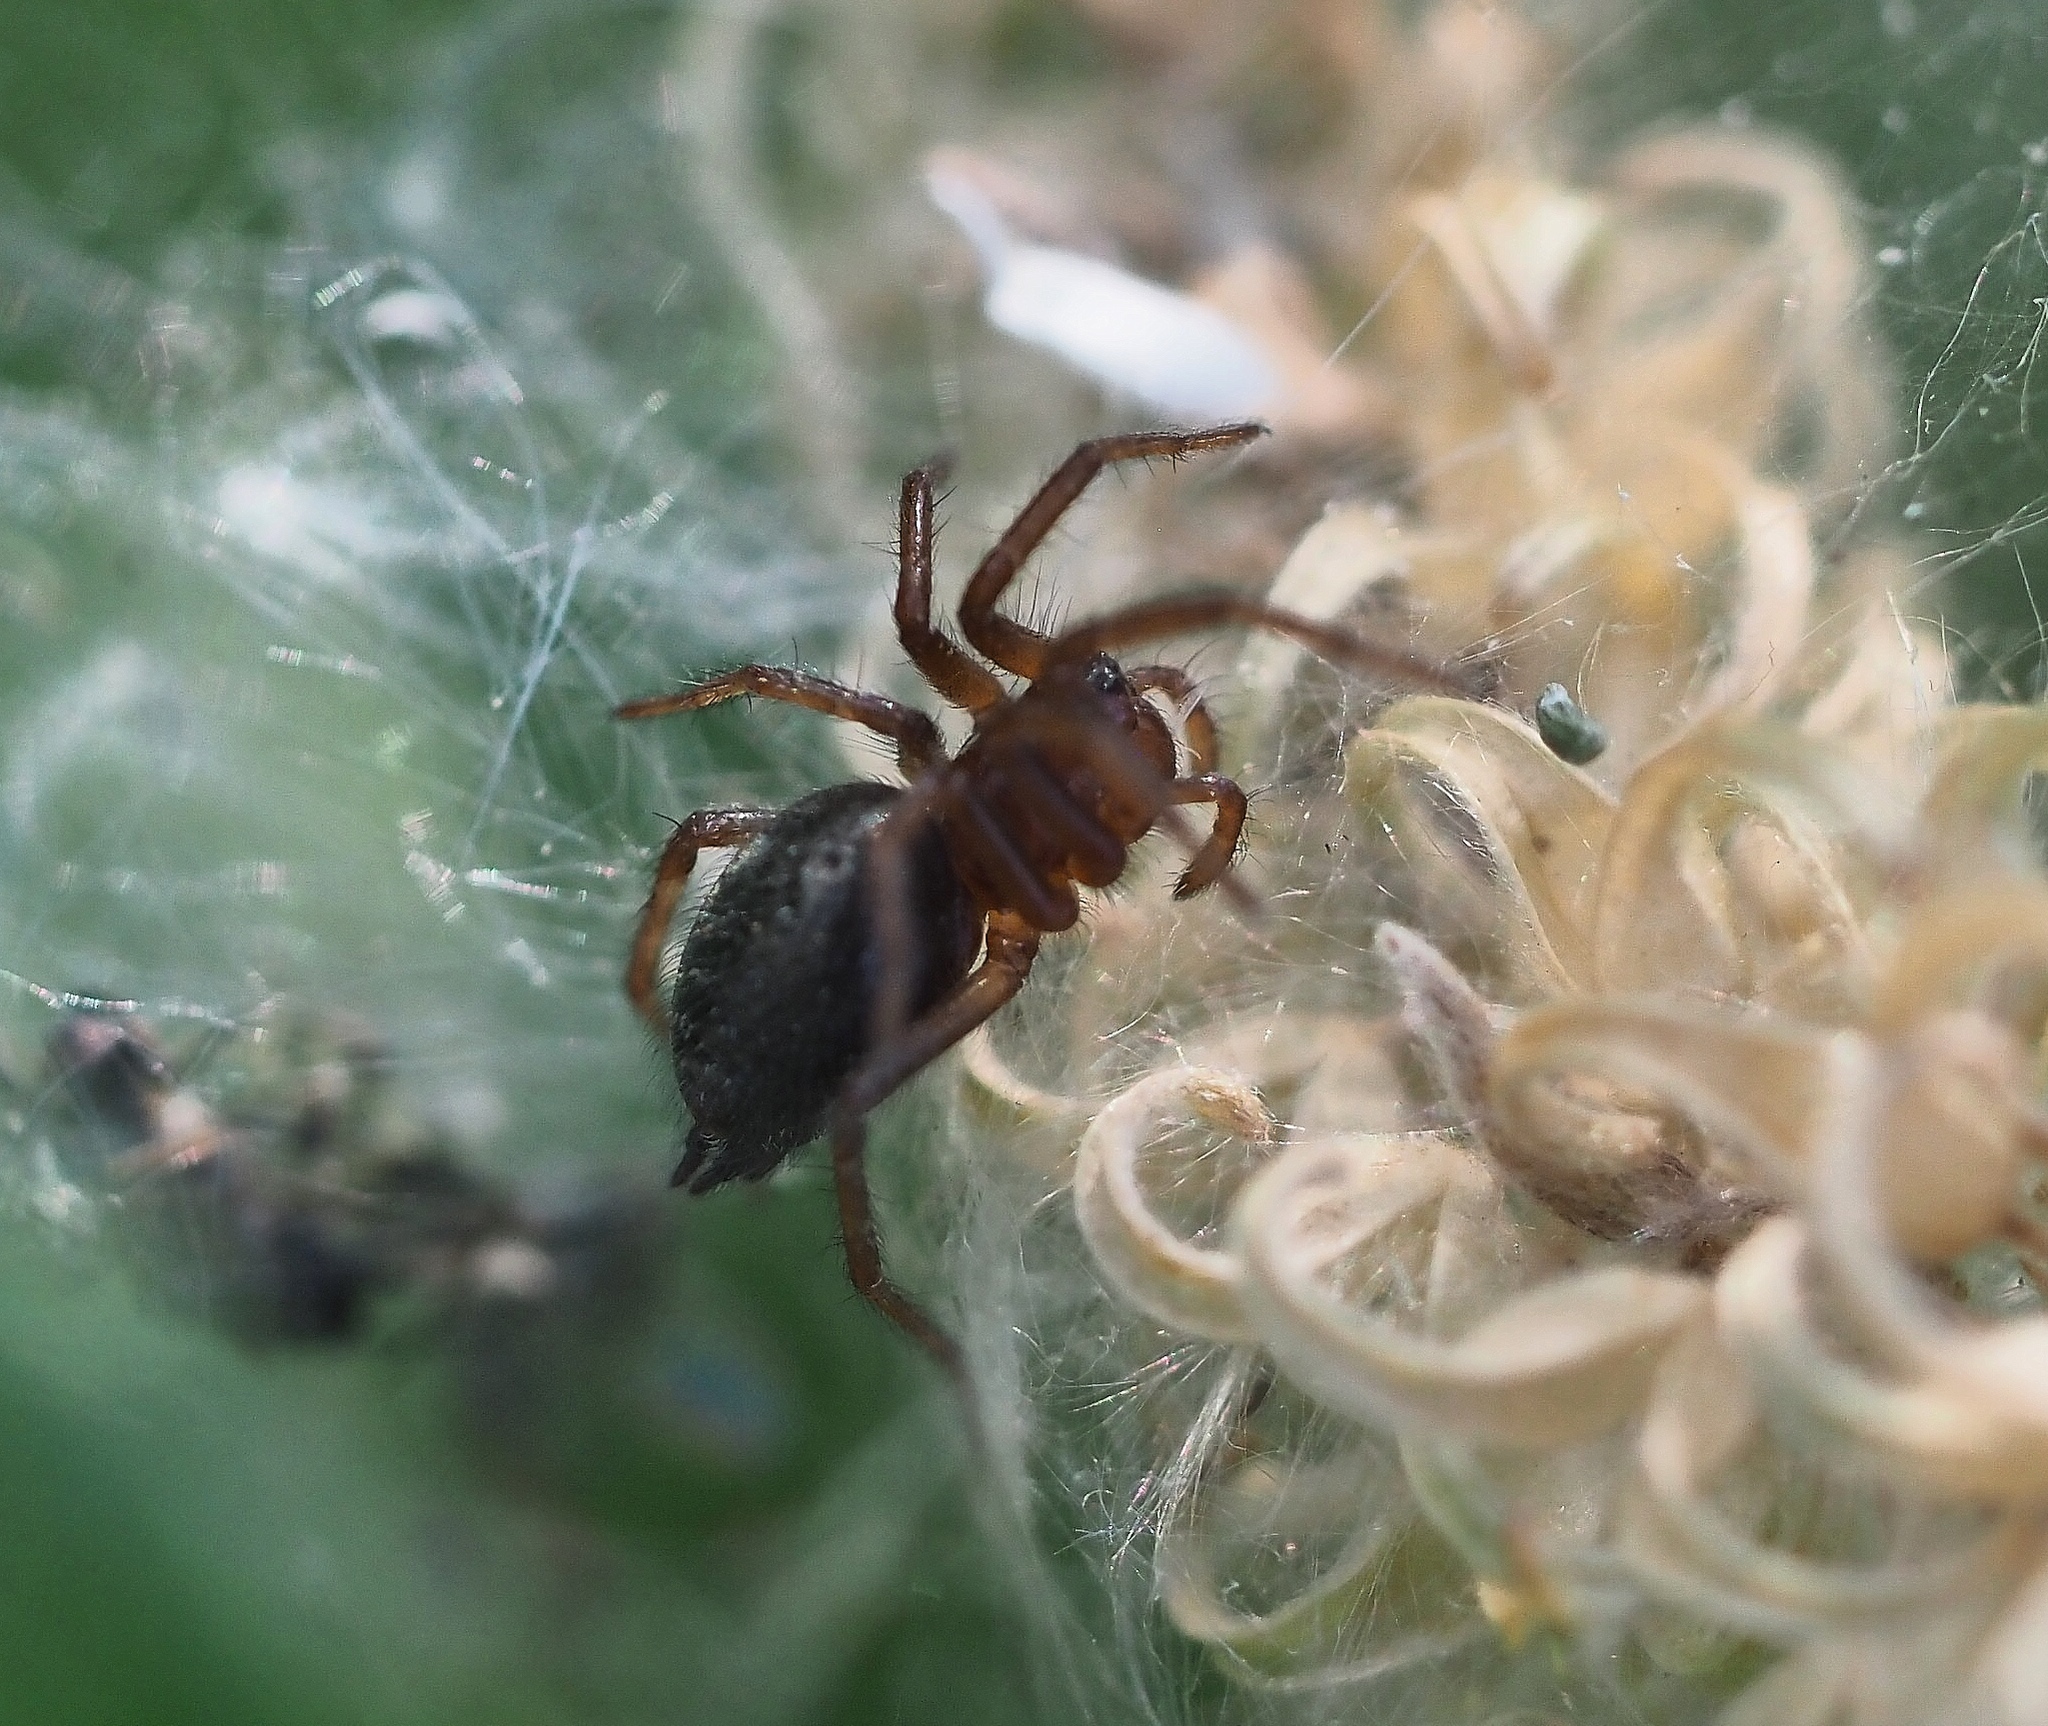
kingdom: Animalia
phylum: Arthropoda
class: Arachnida
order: Araneae
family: Agelenidae
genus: Agelena
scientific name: Agelena labyrinthica
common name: Labyrinth spider
